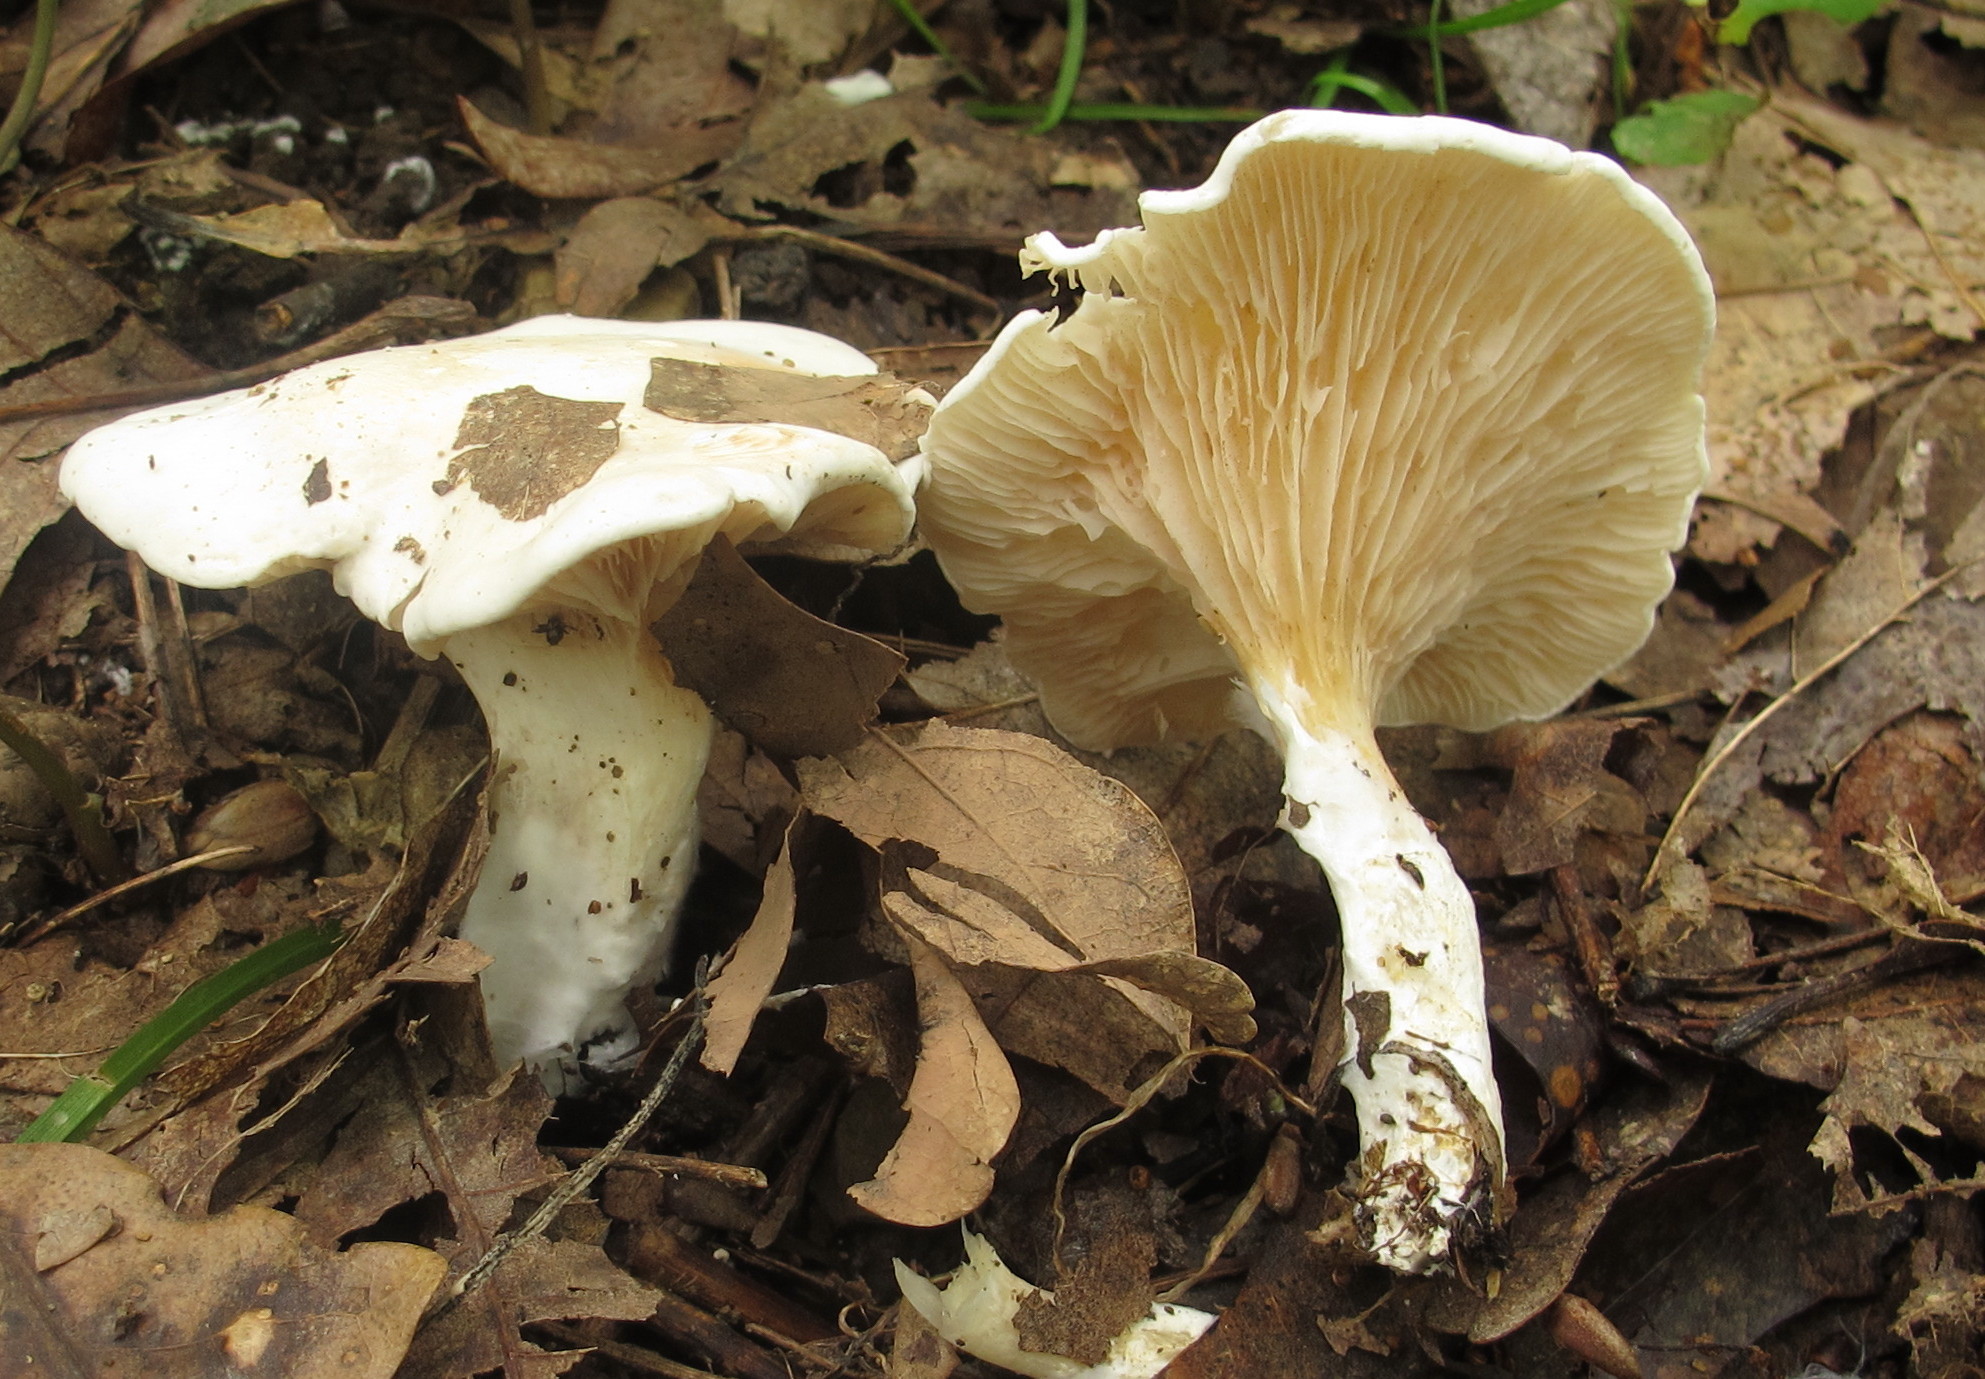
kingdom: Fungi
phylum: Basidiomycota
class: Agaricomycetes
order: Agaricales
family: Entolomataceae
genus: Clitopilus
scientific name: Clitopilus prunulus
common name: The miller
